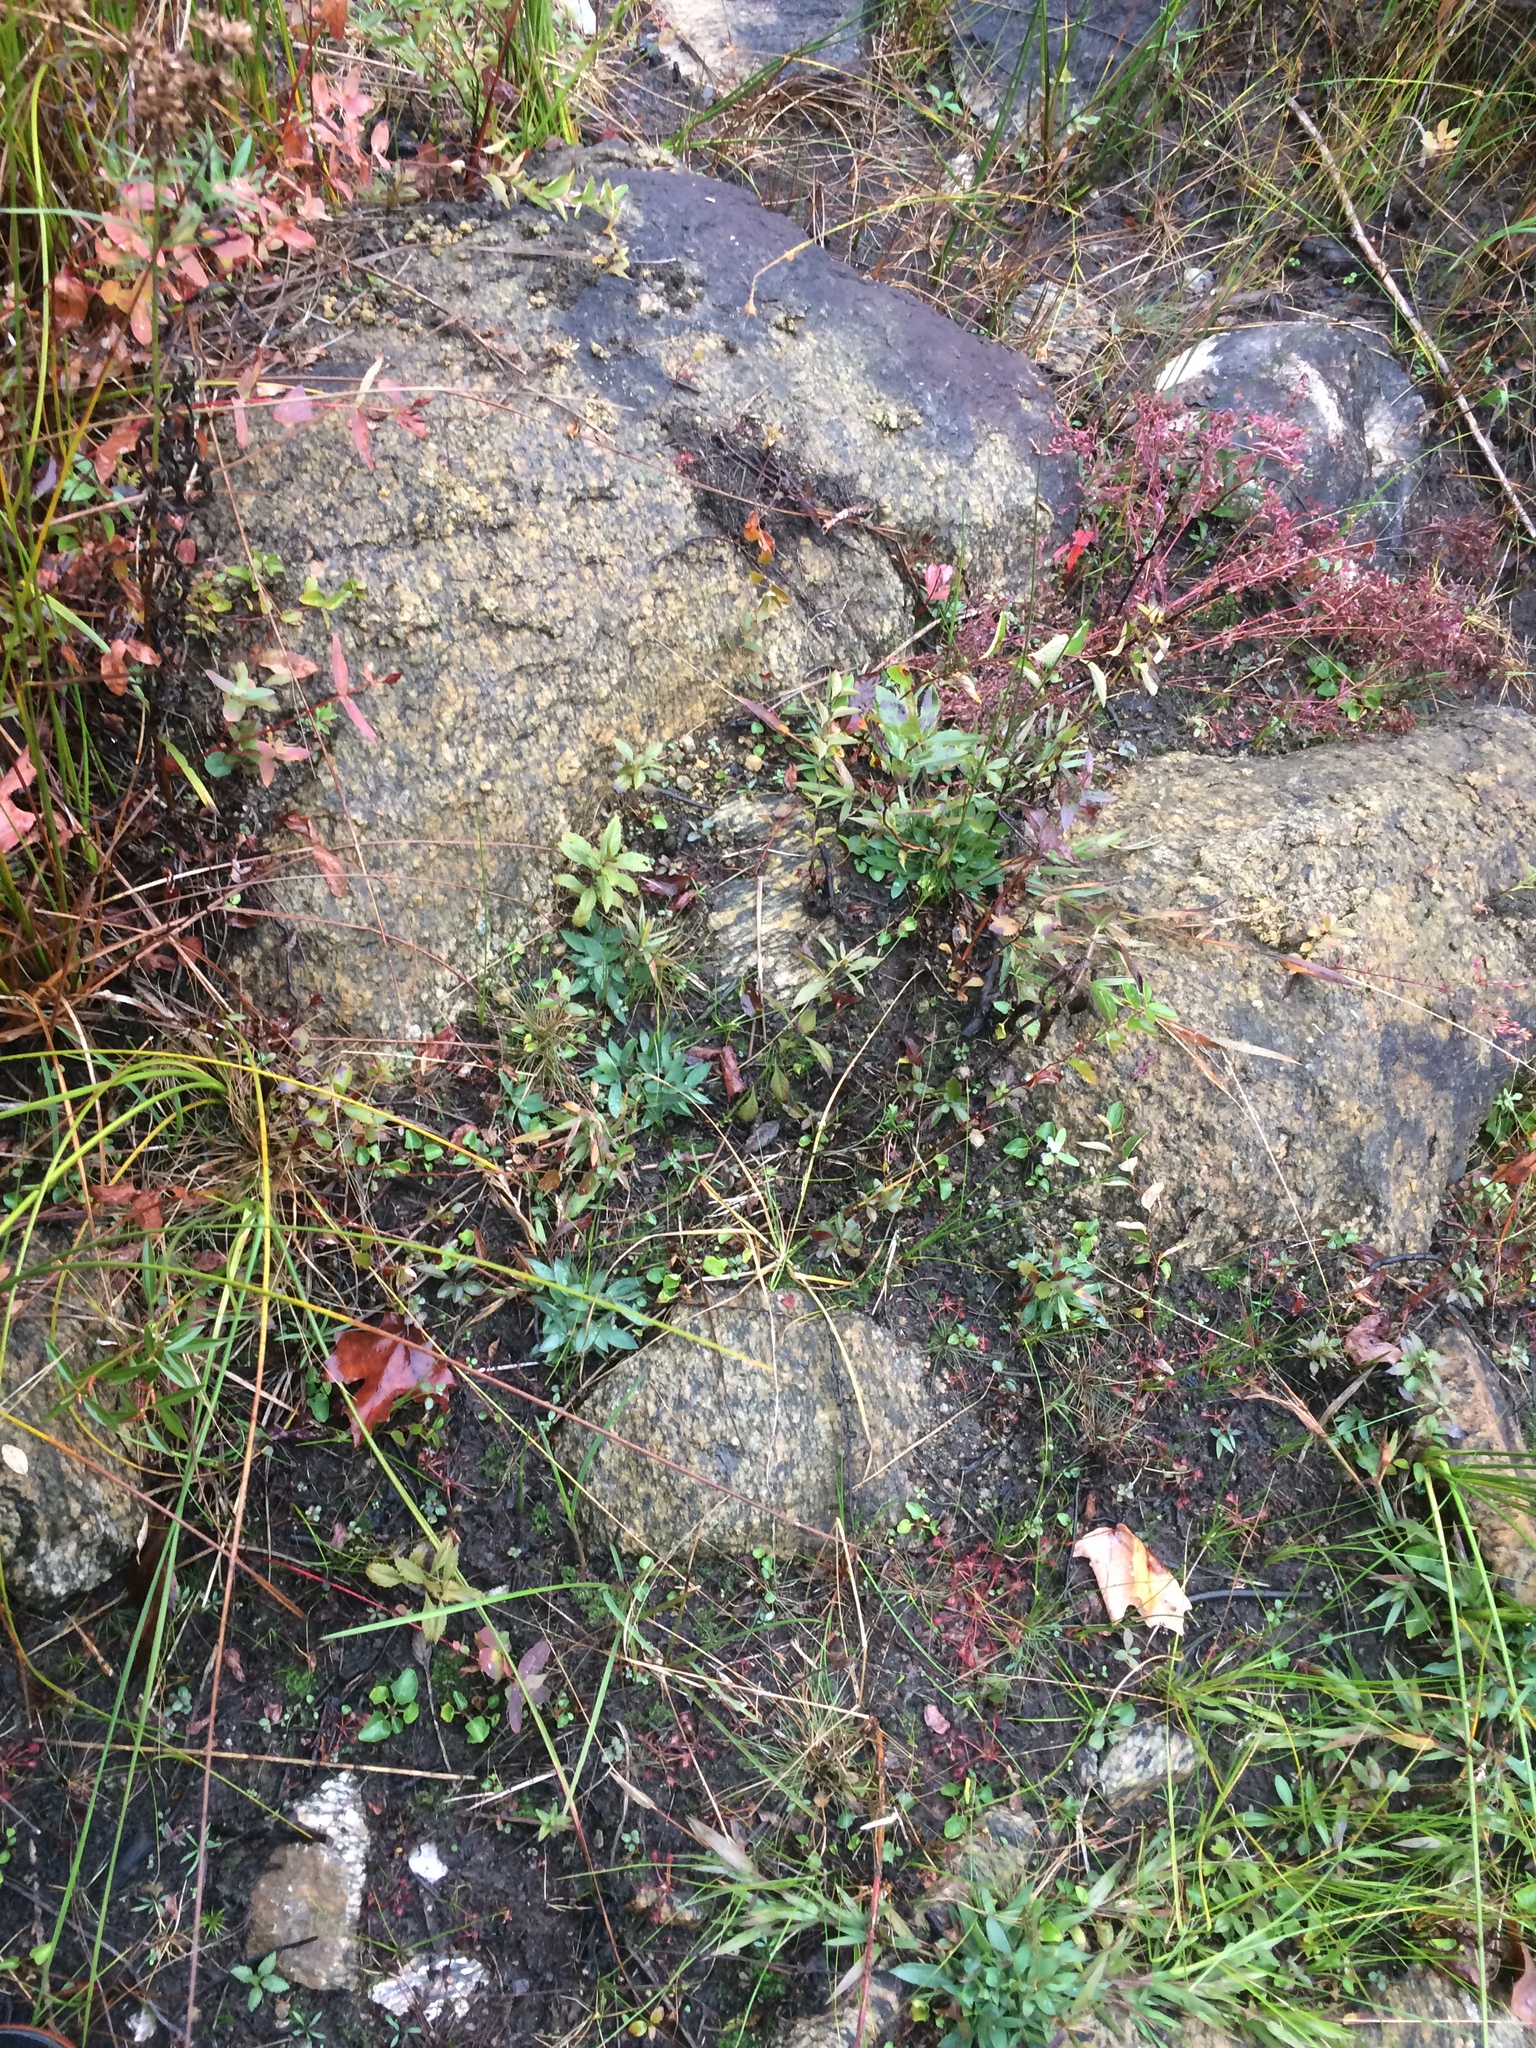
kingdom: Plantae
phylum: Marchantiophyta
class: Jungermanniopsida
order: Fossombroniales
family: Fossombroniaceae
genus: Fossombronia
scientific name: Fossombronia foveolata
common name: Pitted frillwort
